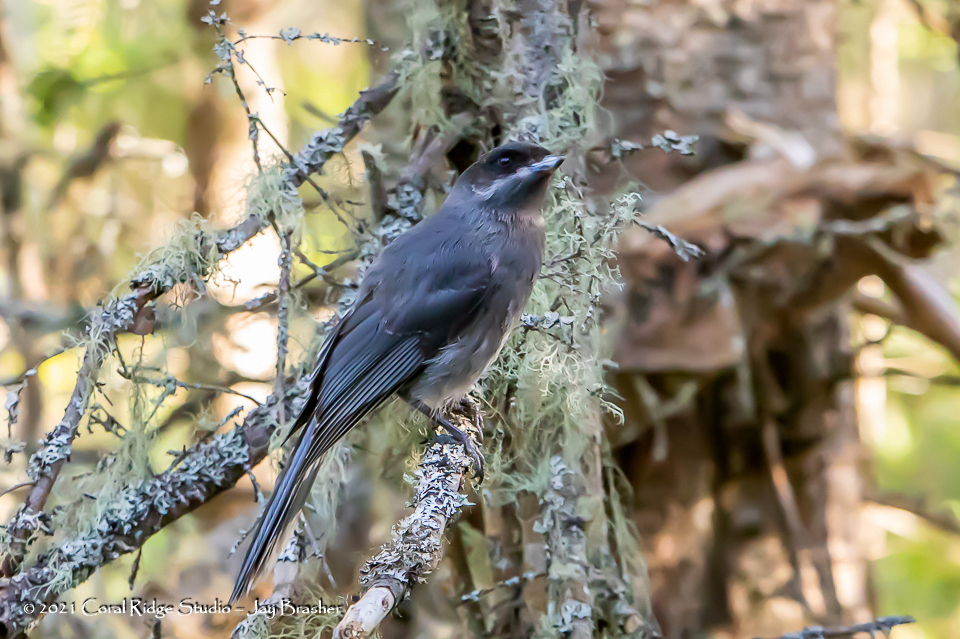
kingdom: Animalia
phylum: Chordata
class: Aves
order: Passeriformes
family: Corvidae
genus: Perisoreus
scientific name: Perisoreus canadensis
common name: Gray jay
